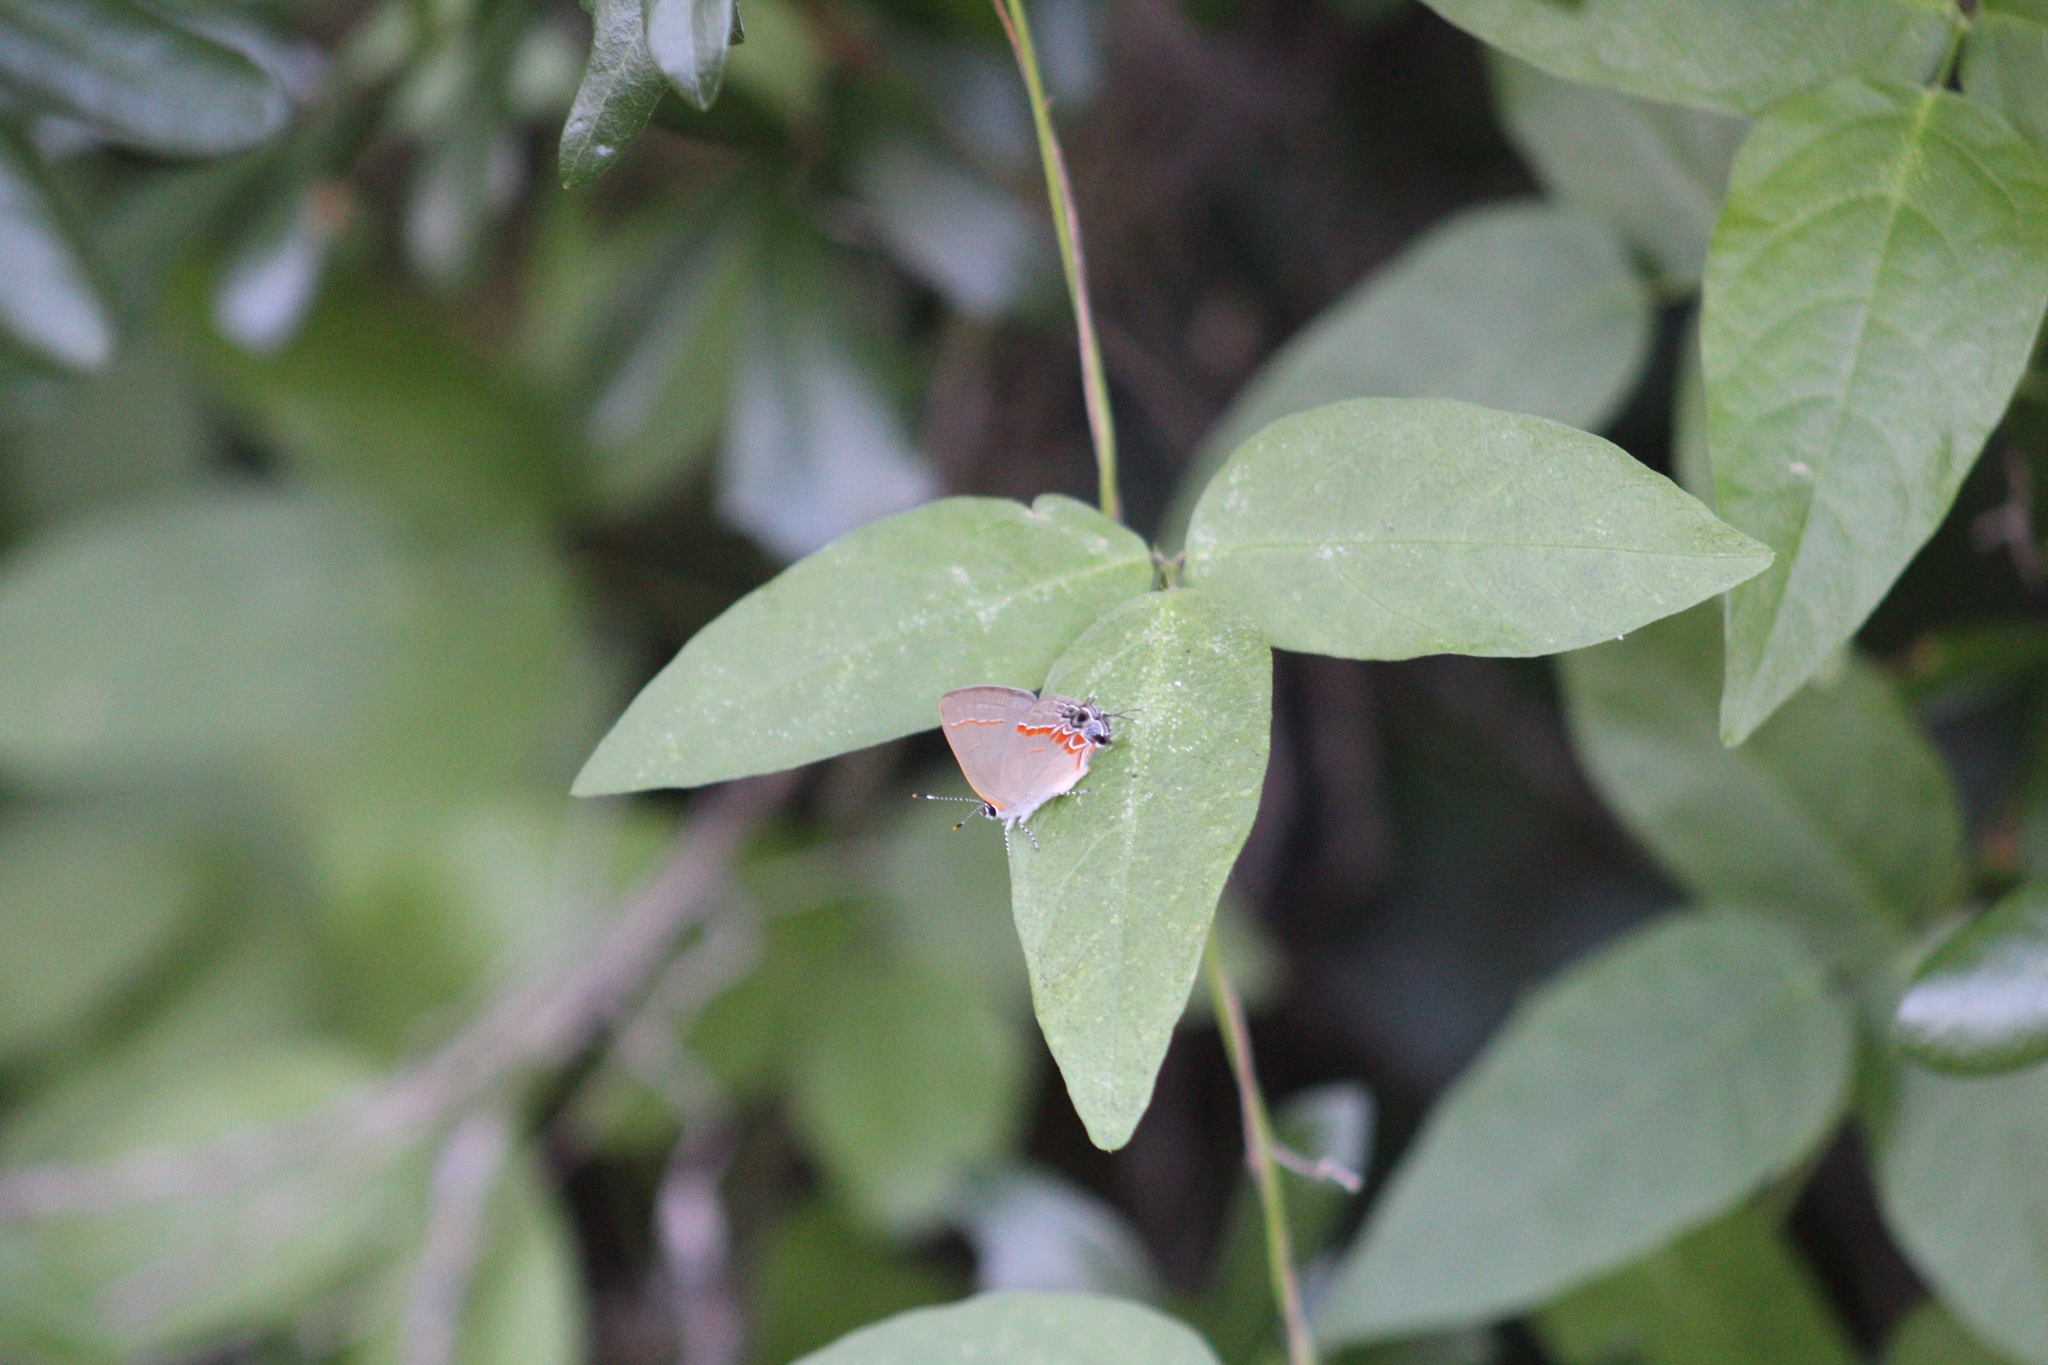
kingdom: Animalia
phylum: Arthropoda
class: Insecta
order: Lepidoptera
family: Lycaenidae
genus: Calycopis
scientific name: Calycopis cecrops
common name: Red-banded hairstreak
